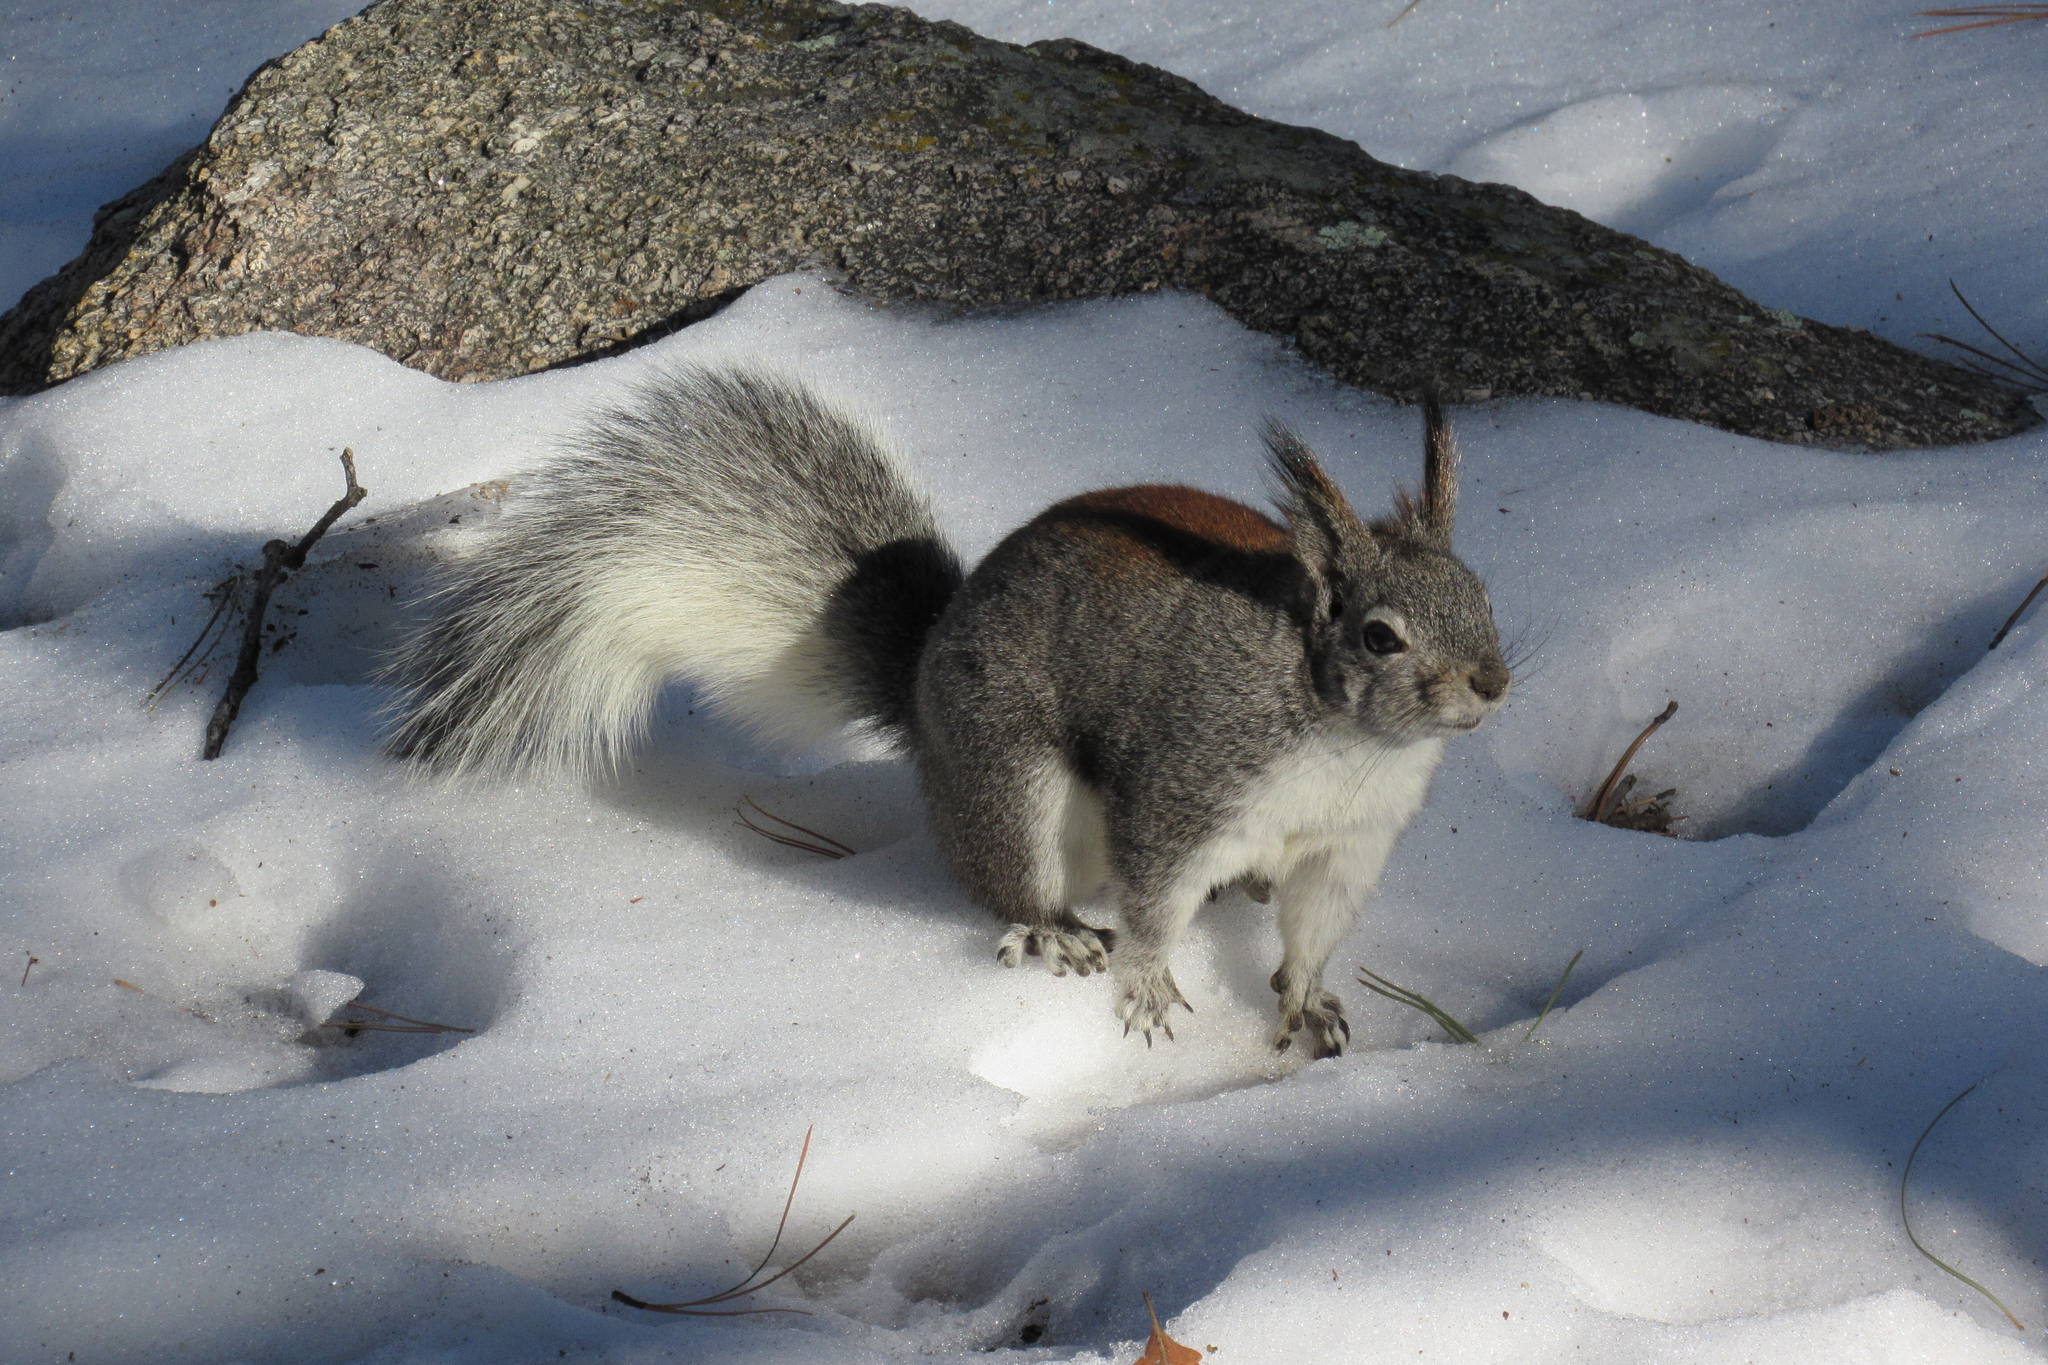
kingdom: Animalia
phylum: Chordata
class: Mammalia
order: Rodentia
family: Sciuridae
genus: Sciurus
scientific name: Sciurus aberti
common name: Abert's squirrel
